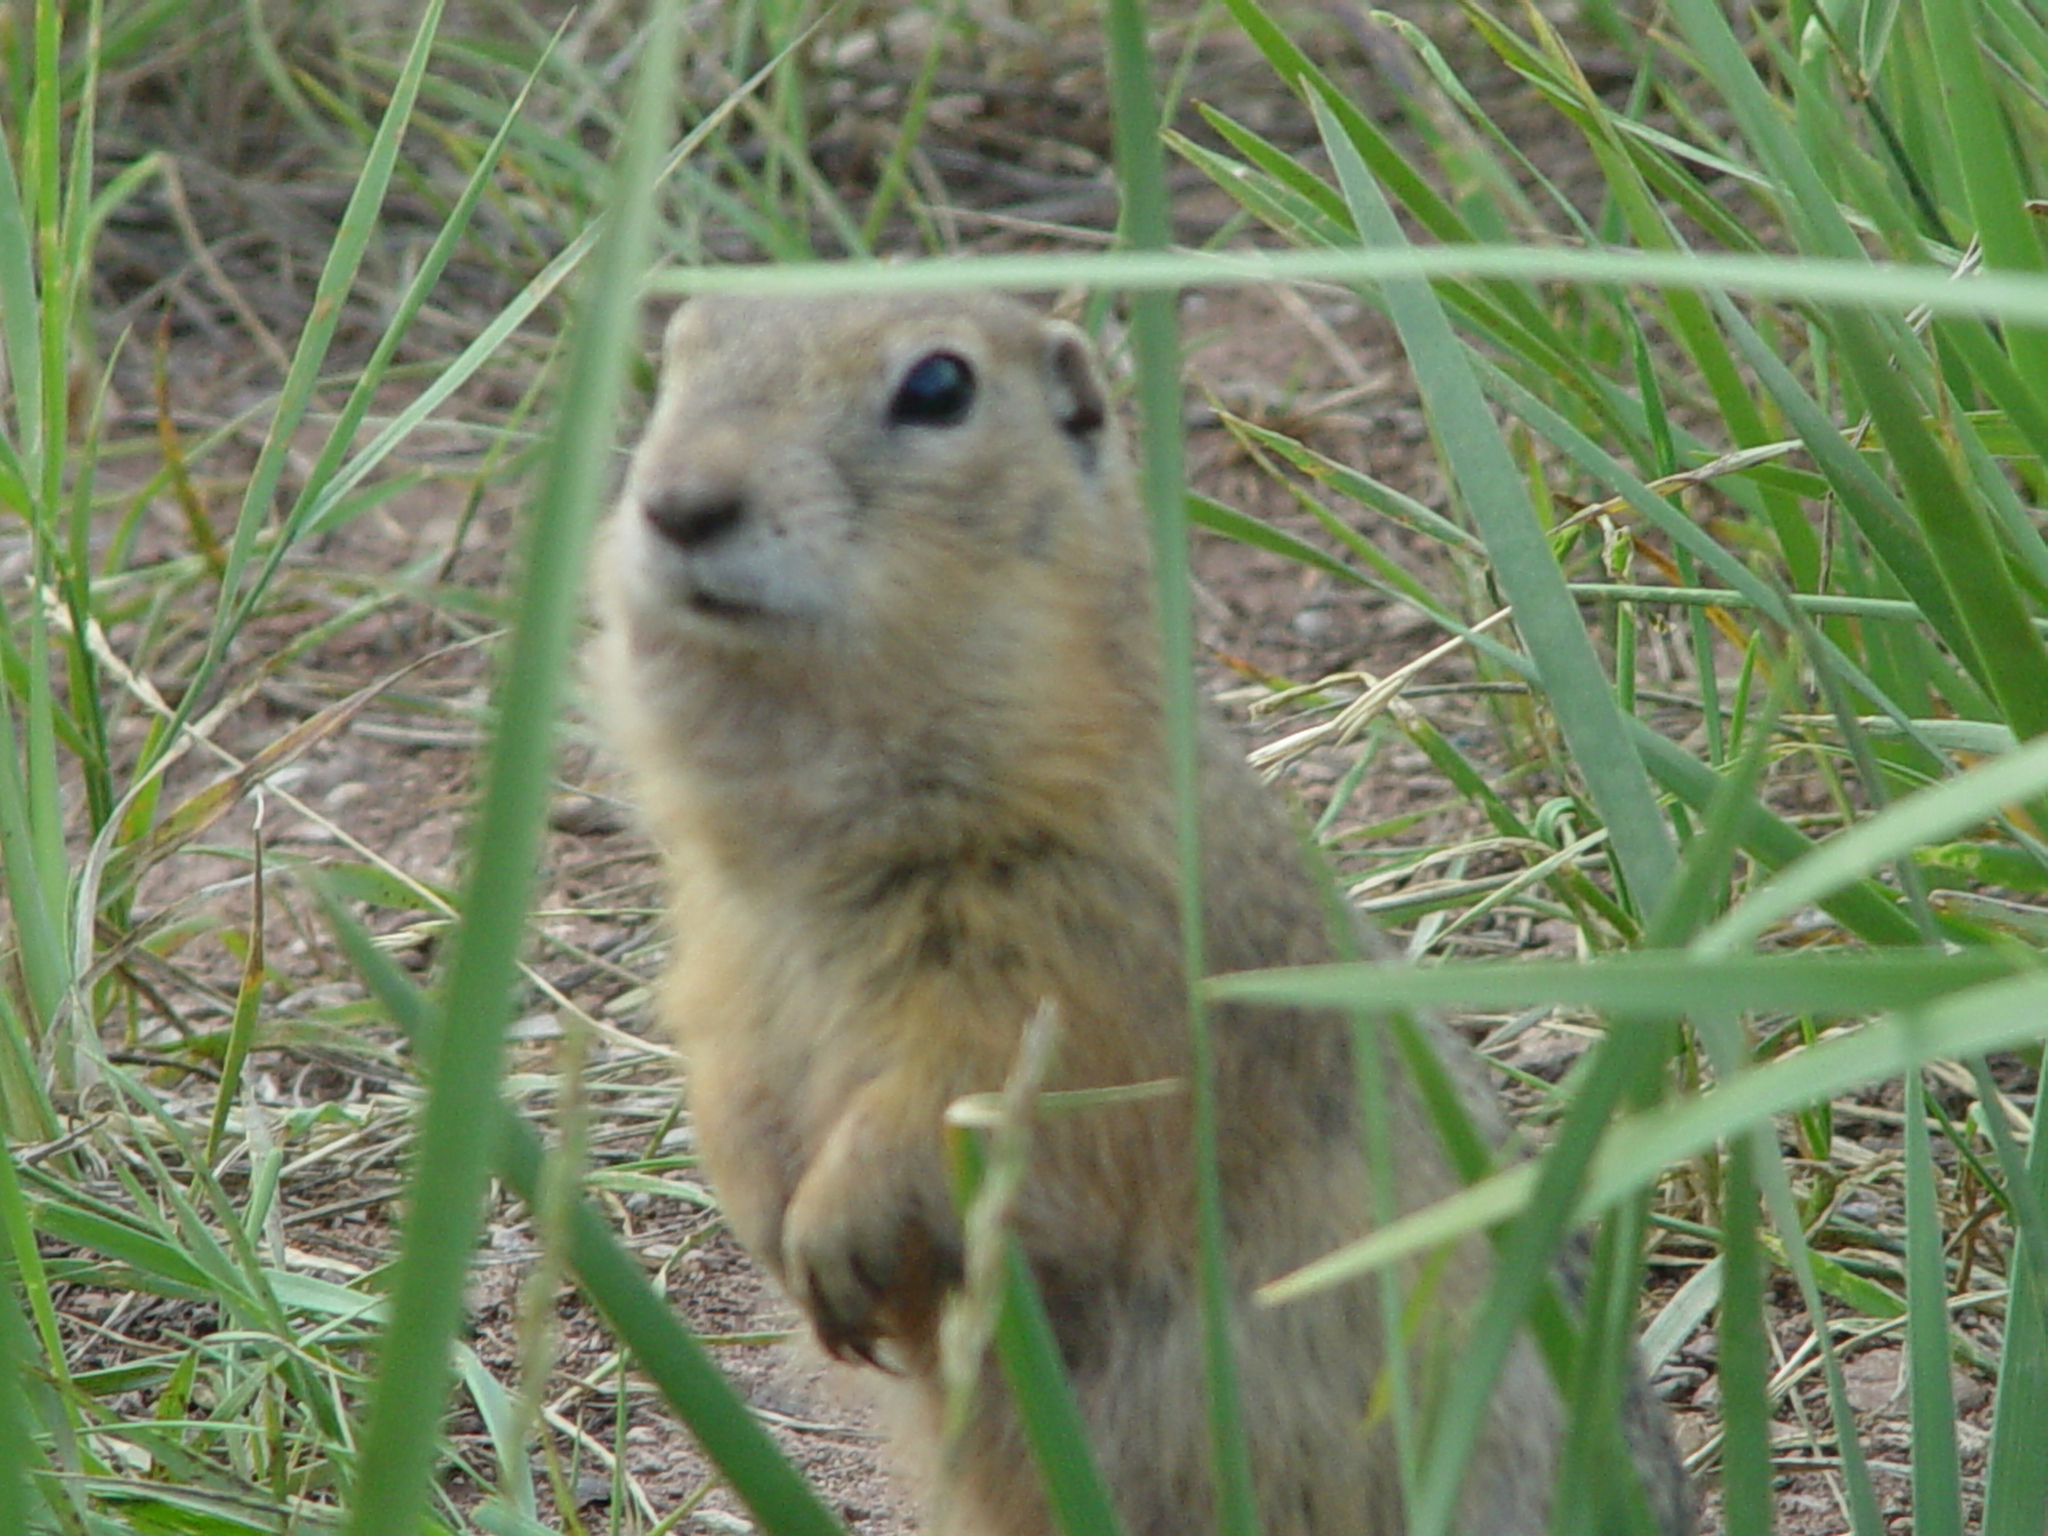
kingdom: Animalia
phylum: Chordata
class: Mammalia
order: Rodentia
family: Sciuridae
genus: Urocitellus
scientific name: Urocitellus undulatus
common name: Long-tailed ground squirrel
